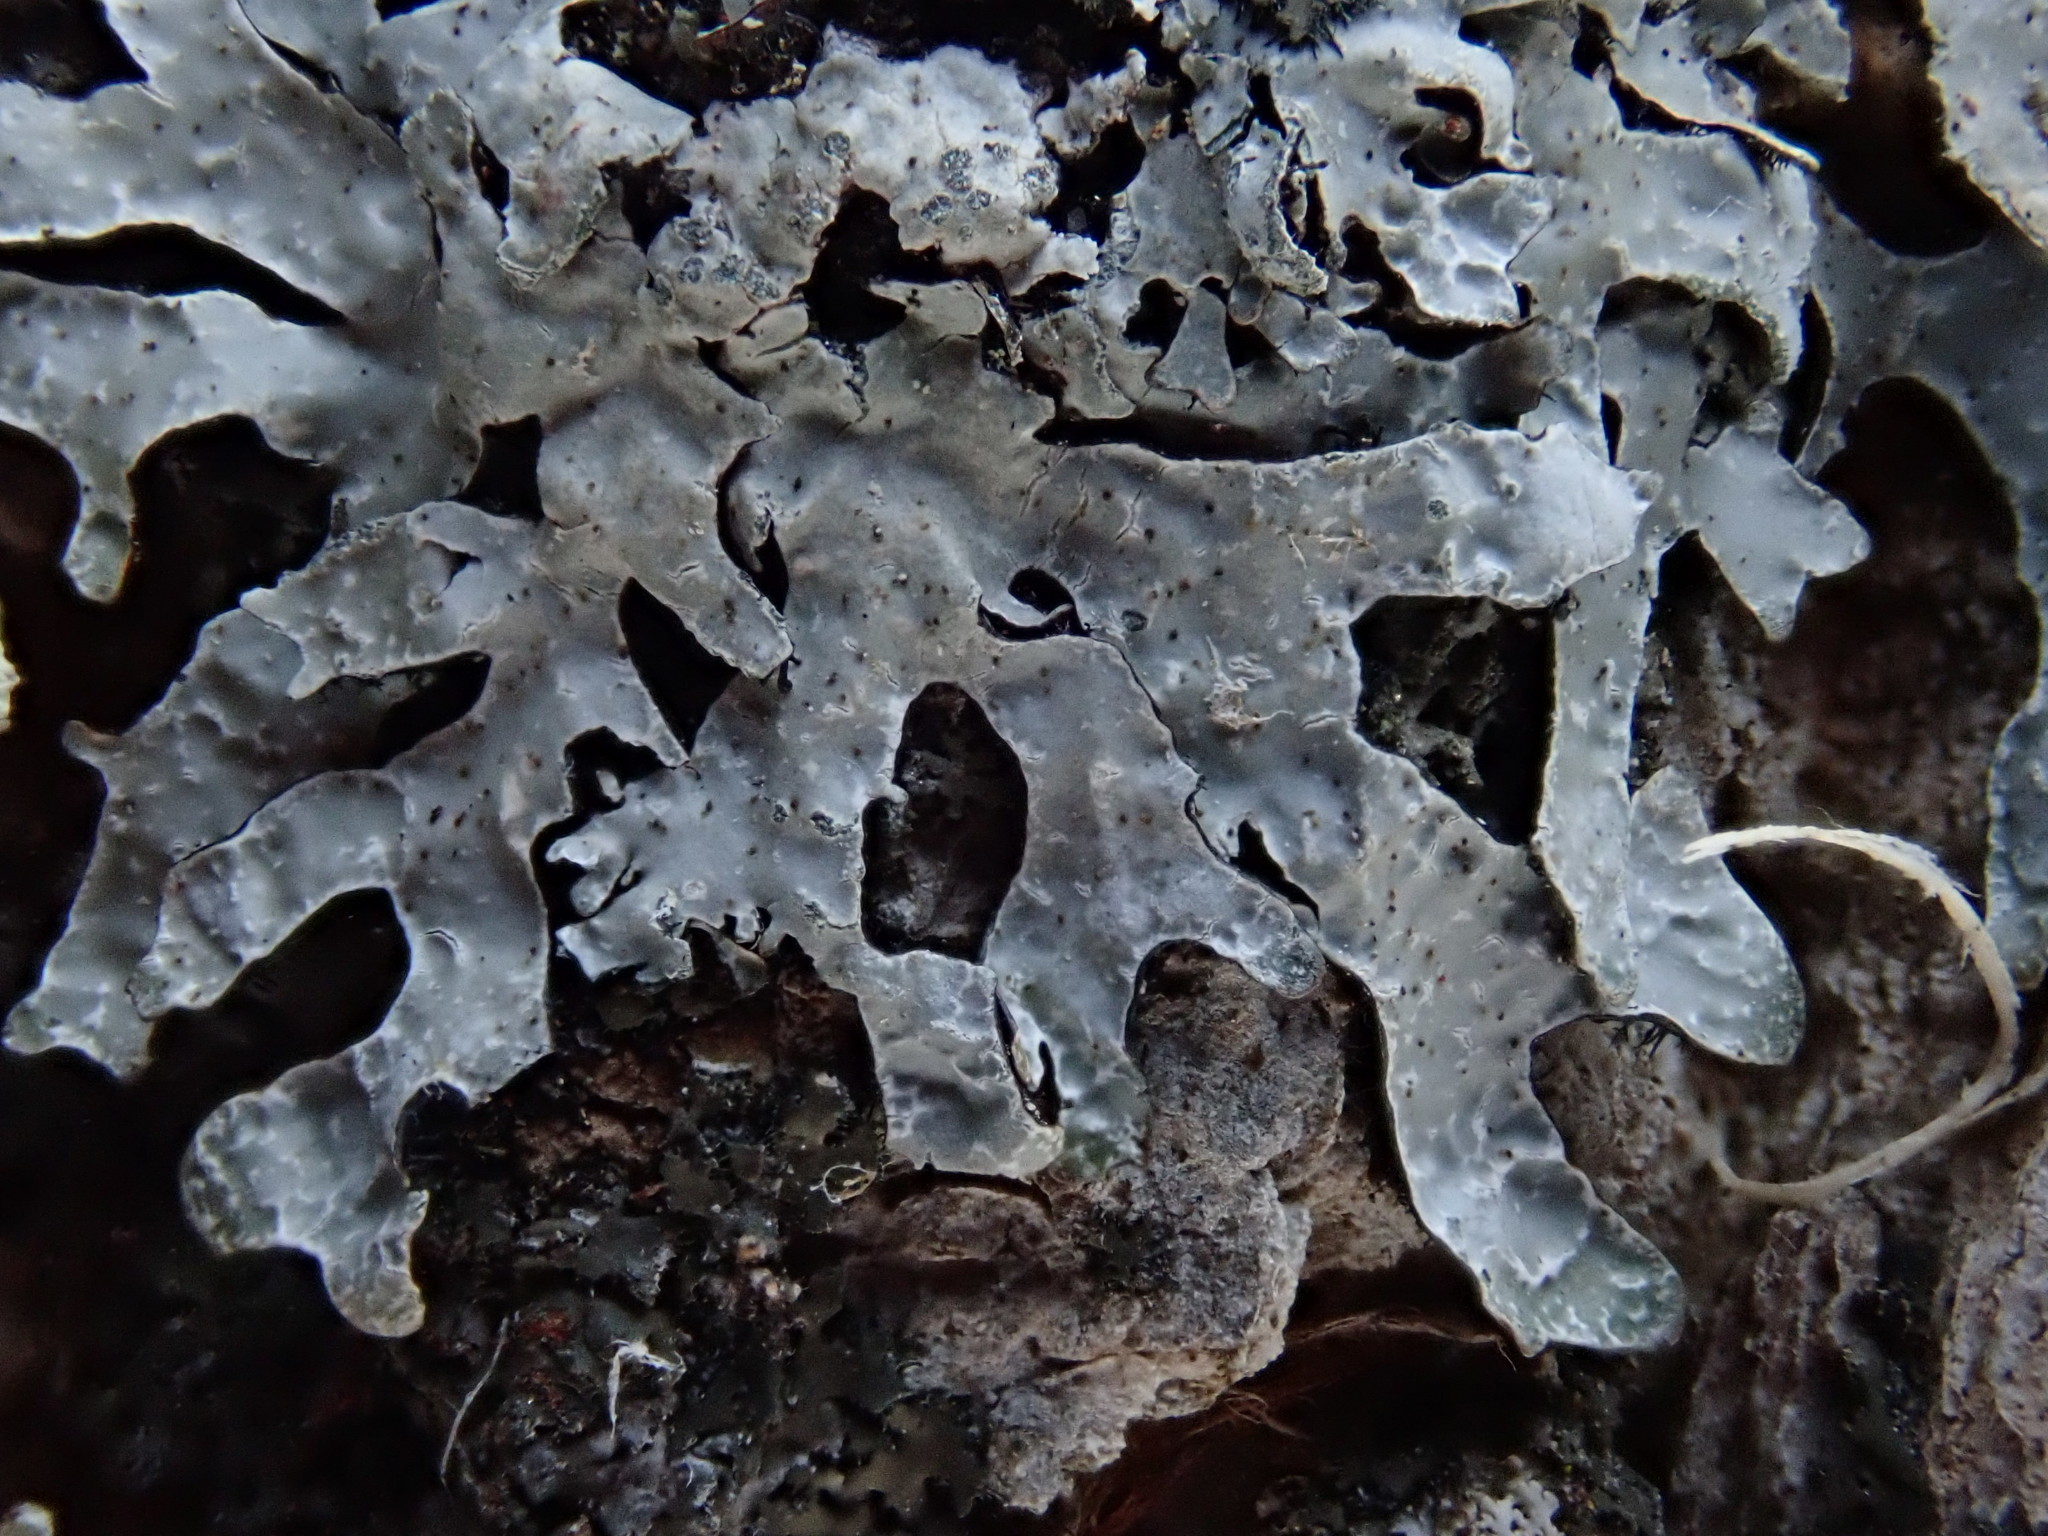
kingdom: Fungi
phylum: Ascomycota
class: Lecanoromycetes
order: Lecanorales
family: Parmeliaceae
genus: Parmelia
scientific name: Parmelia sulcata
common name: Netted shield lichen
